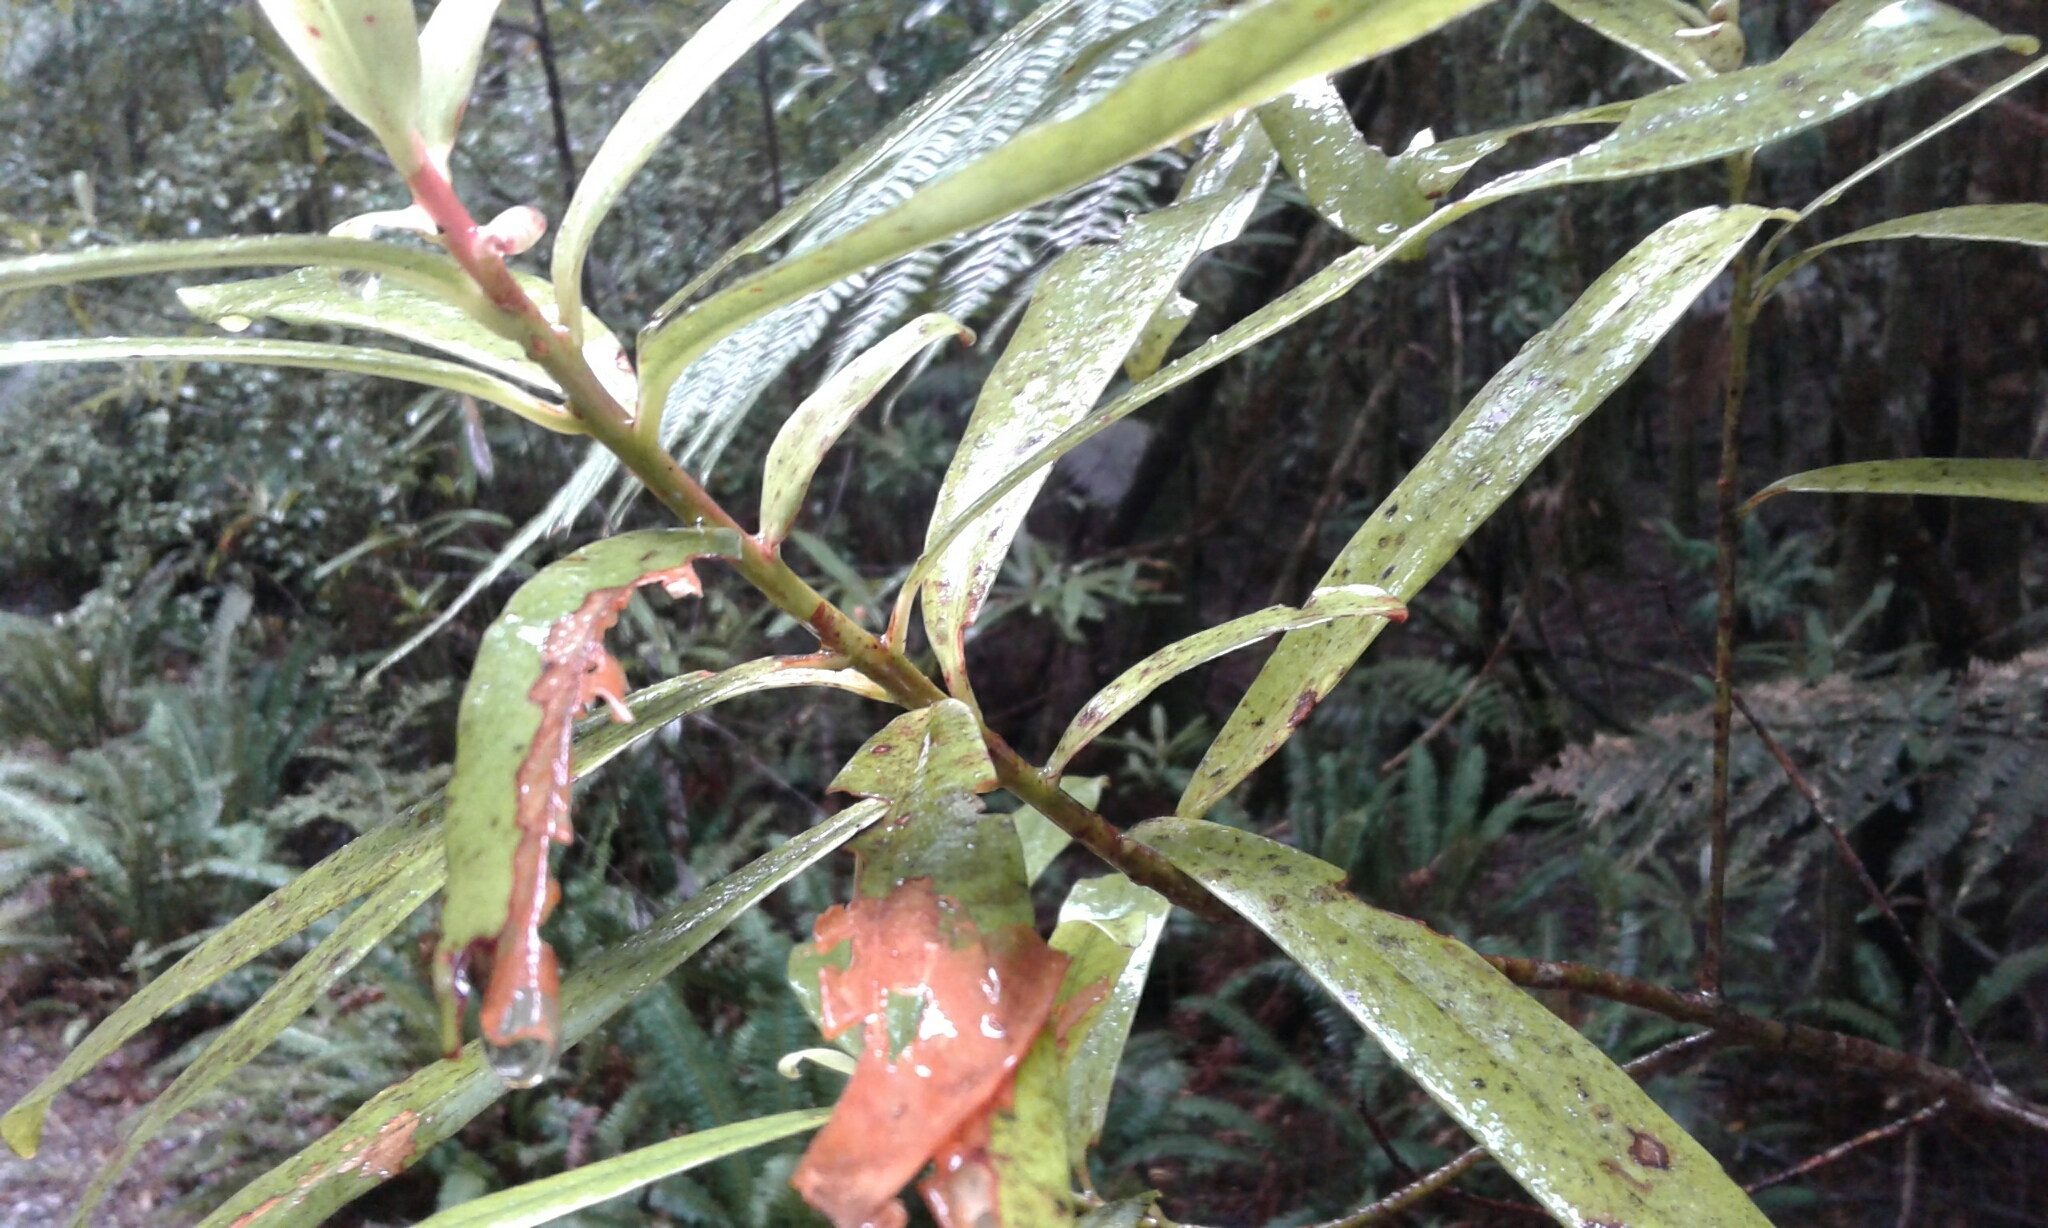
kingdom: Plantae
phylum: Tracheophyta
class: Magnoliopsida
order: Ericales
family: Primulaceae
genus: Myrsine
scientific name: Myrsine salicina
